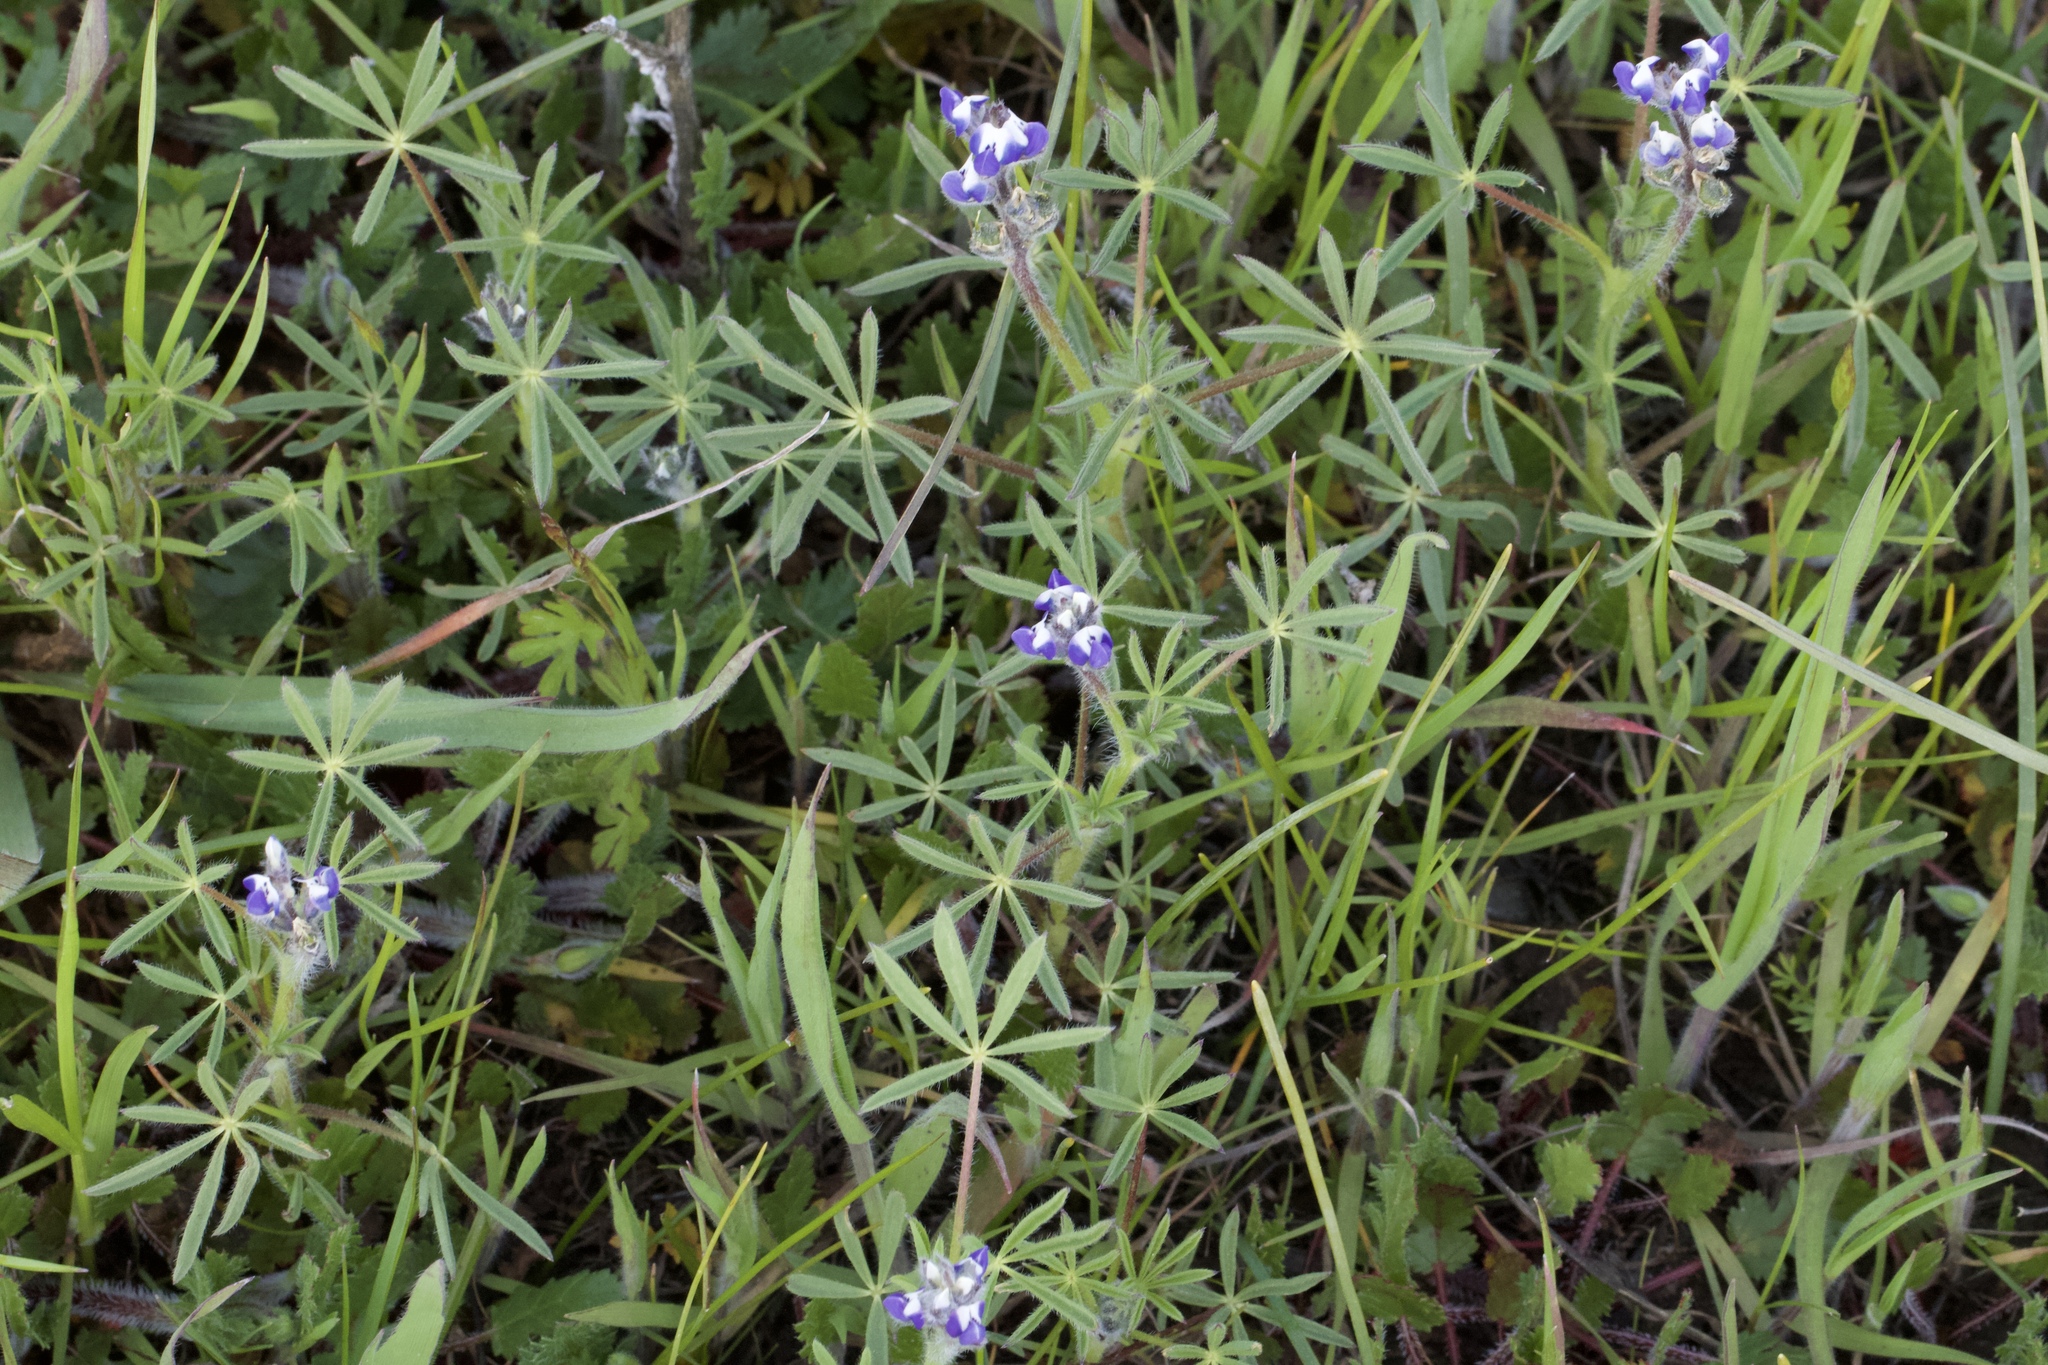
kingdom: Plantae
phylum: Tracheophyta
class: Magnoliopsida
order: Fabales
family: Fabaceae
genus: Lupinus
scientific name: Lupinus bicolor
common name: Miniature lupine
